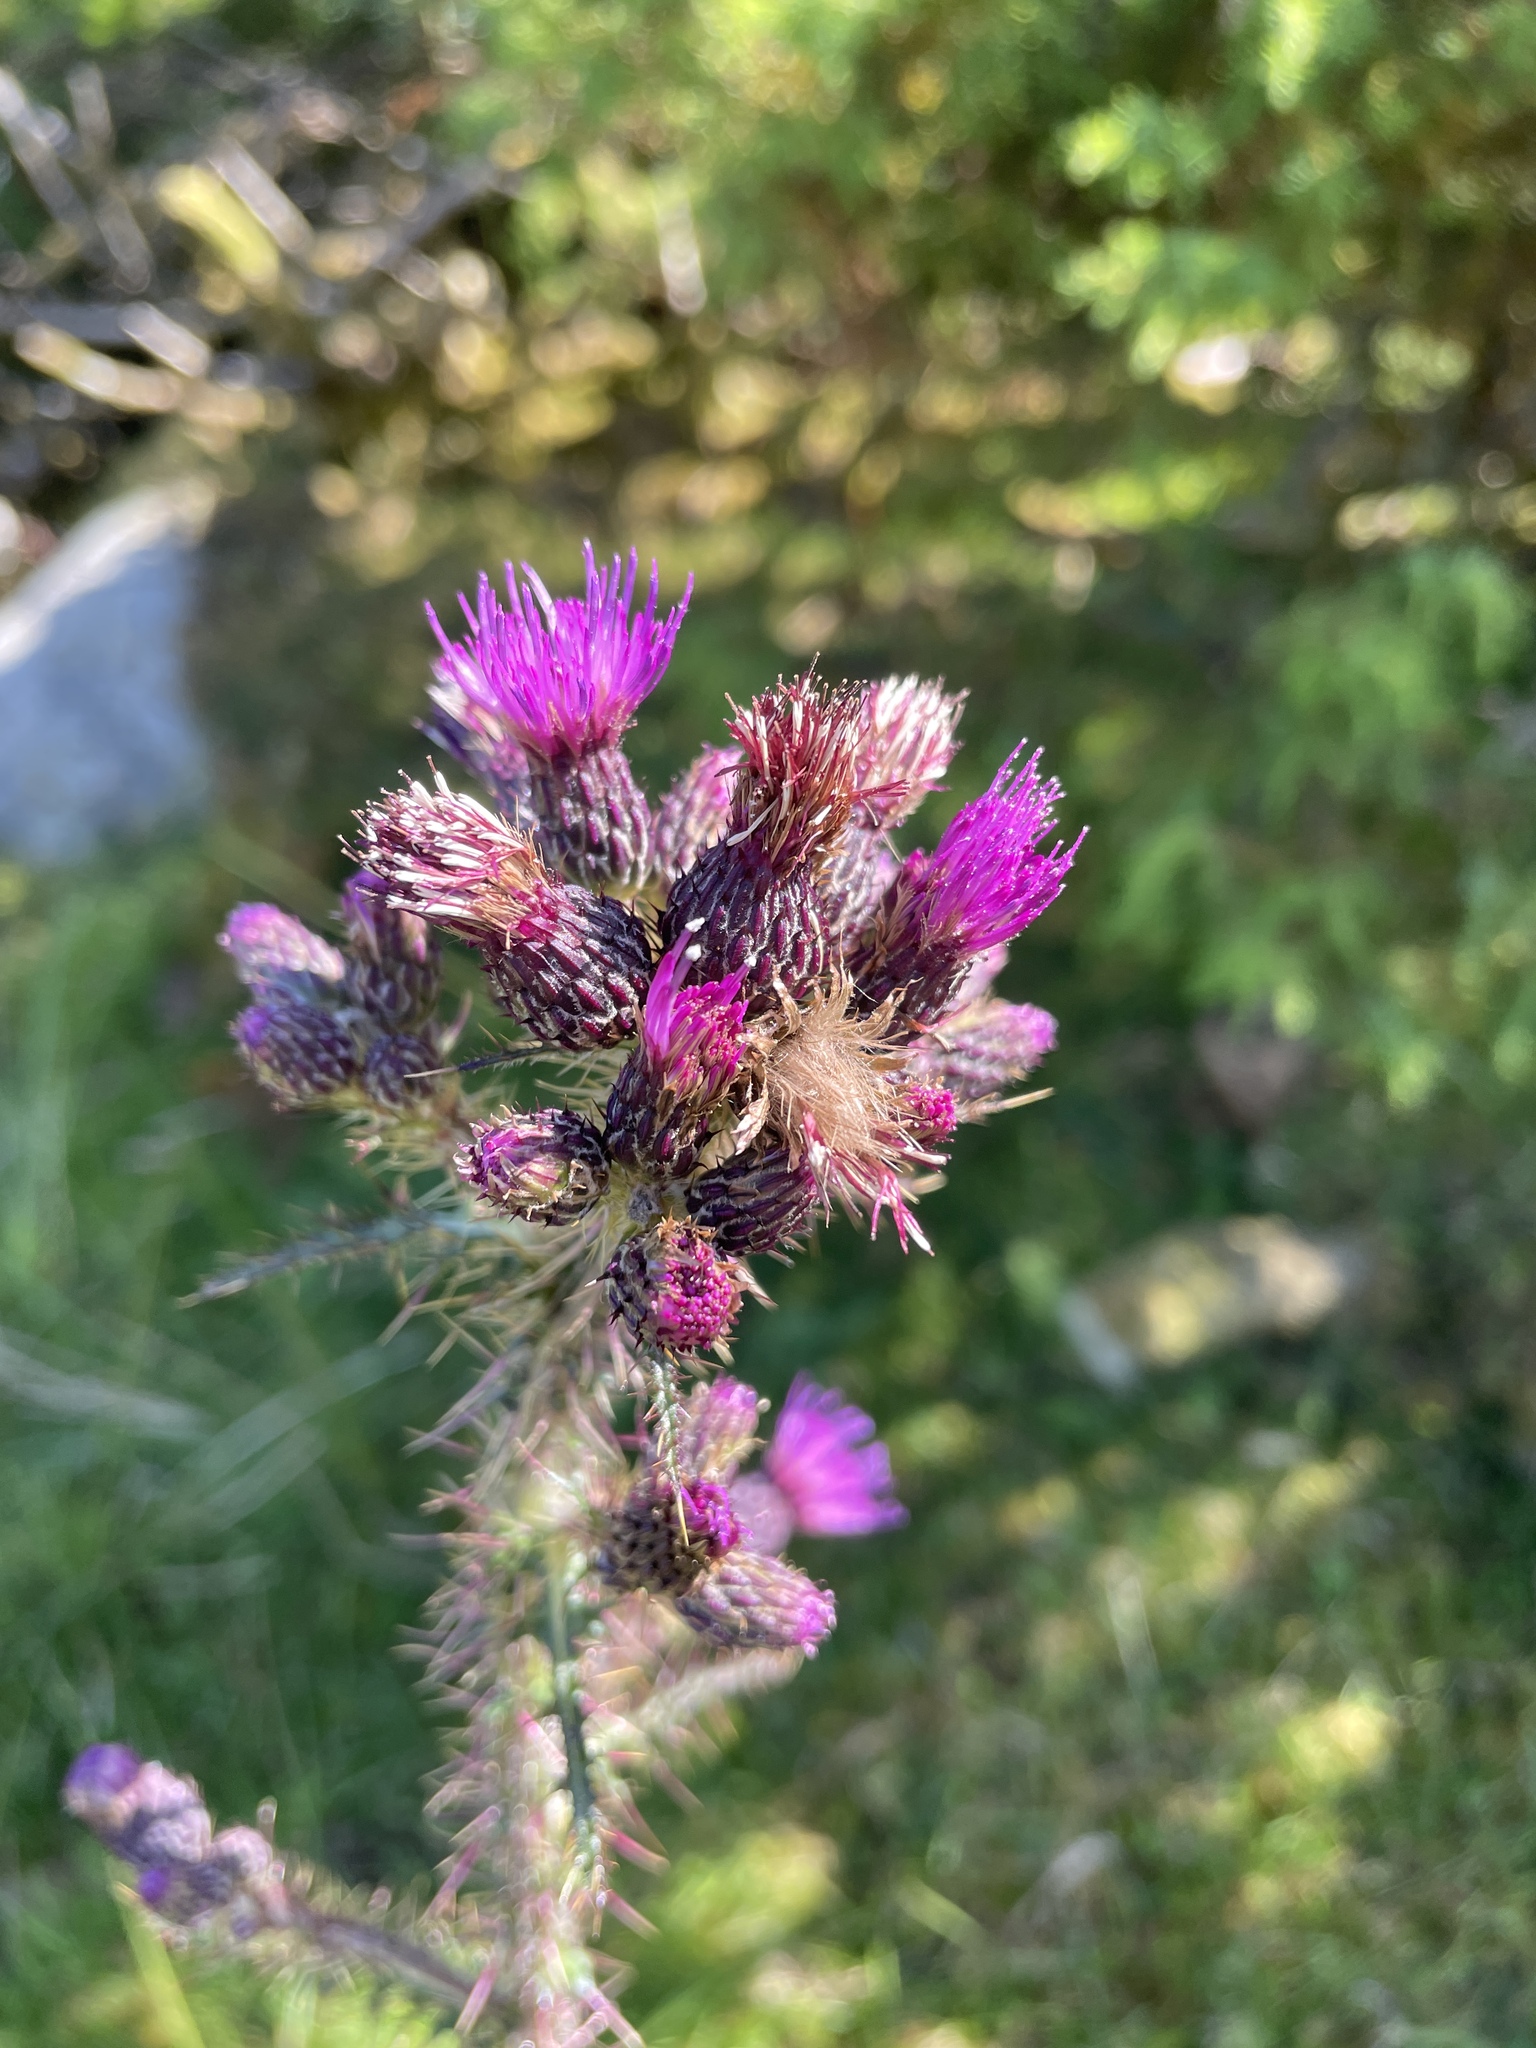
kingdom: Plantae
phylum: Tracheophyta
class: Magnoliopsida
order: Asterales
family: Asteraceae
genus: Cirsium
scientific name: Cirsium palustre
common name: Marsh thistle
